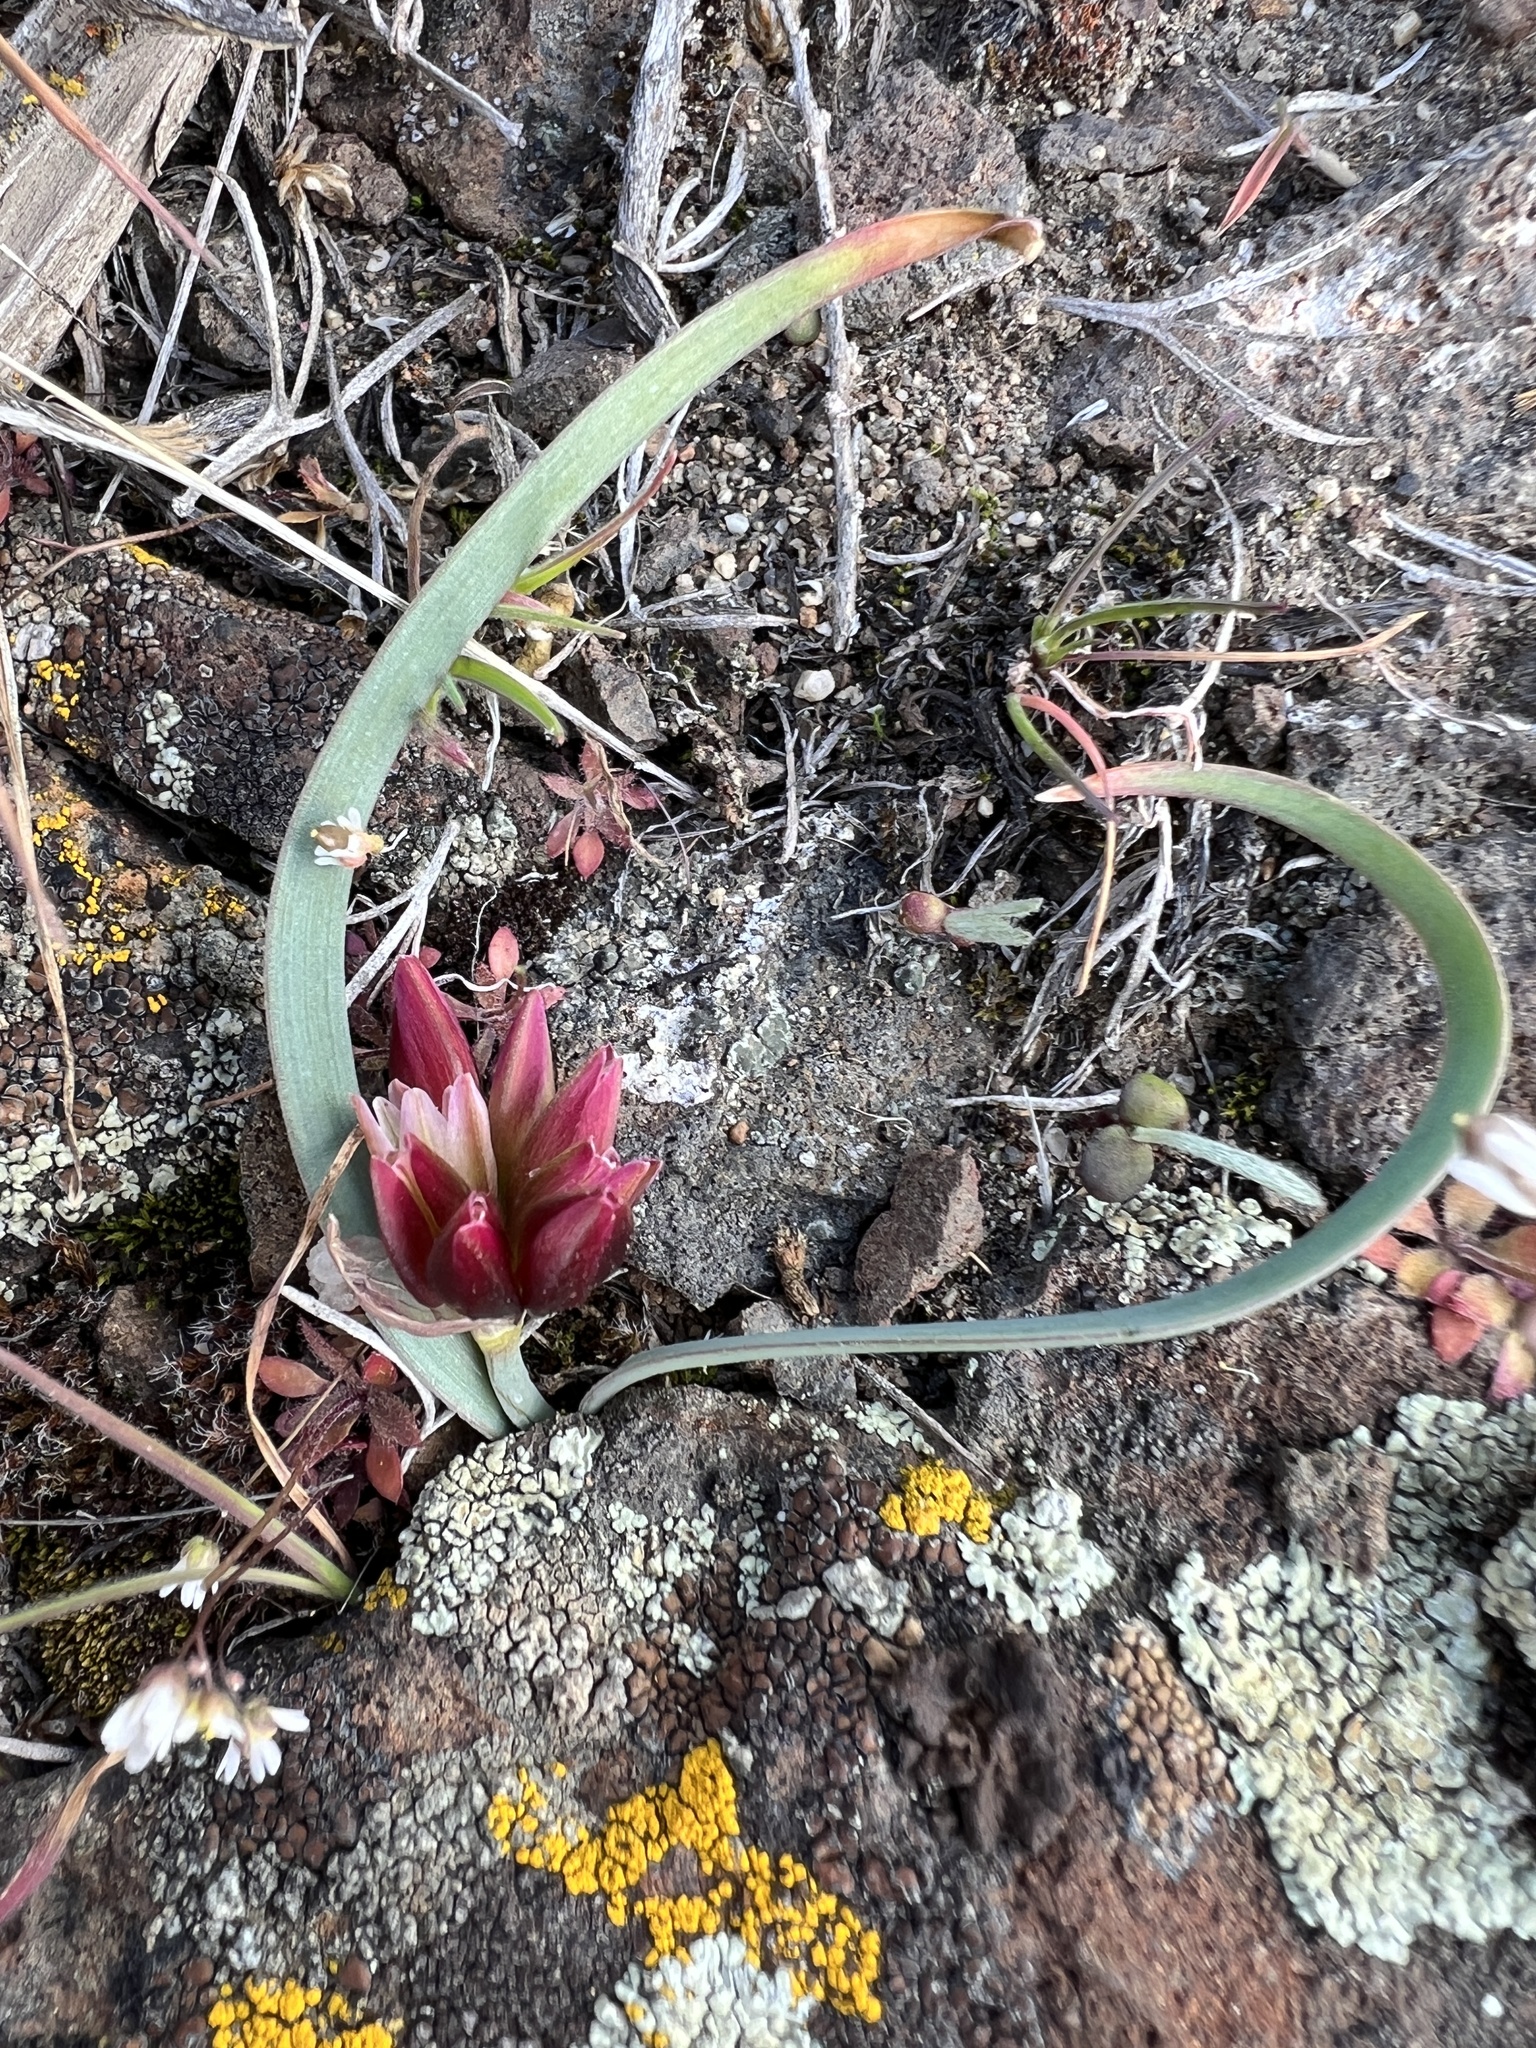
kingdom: Plantae
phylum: Tracheophyta
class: Liliopsida
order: Asparagales
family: Amaryllidaceae
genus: Allium
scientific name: Allium scilloides
